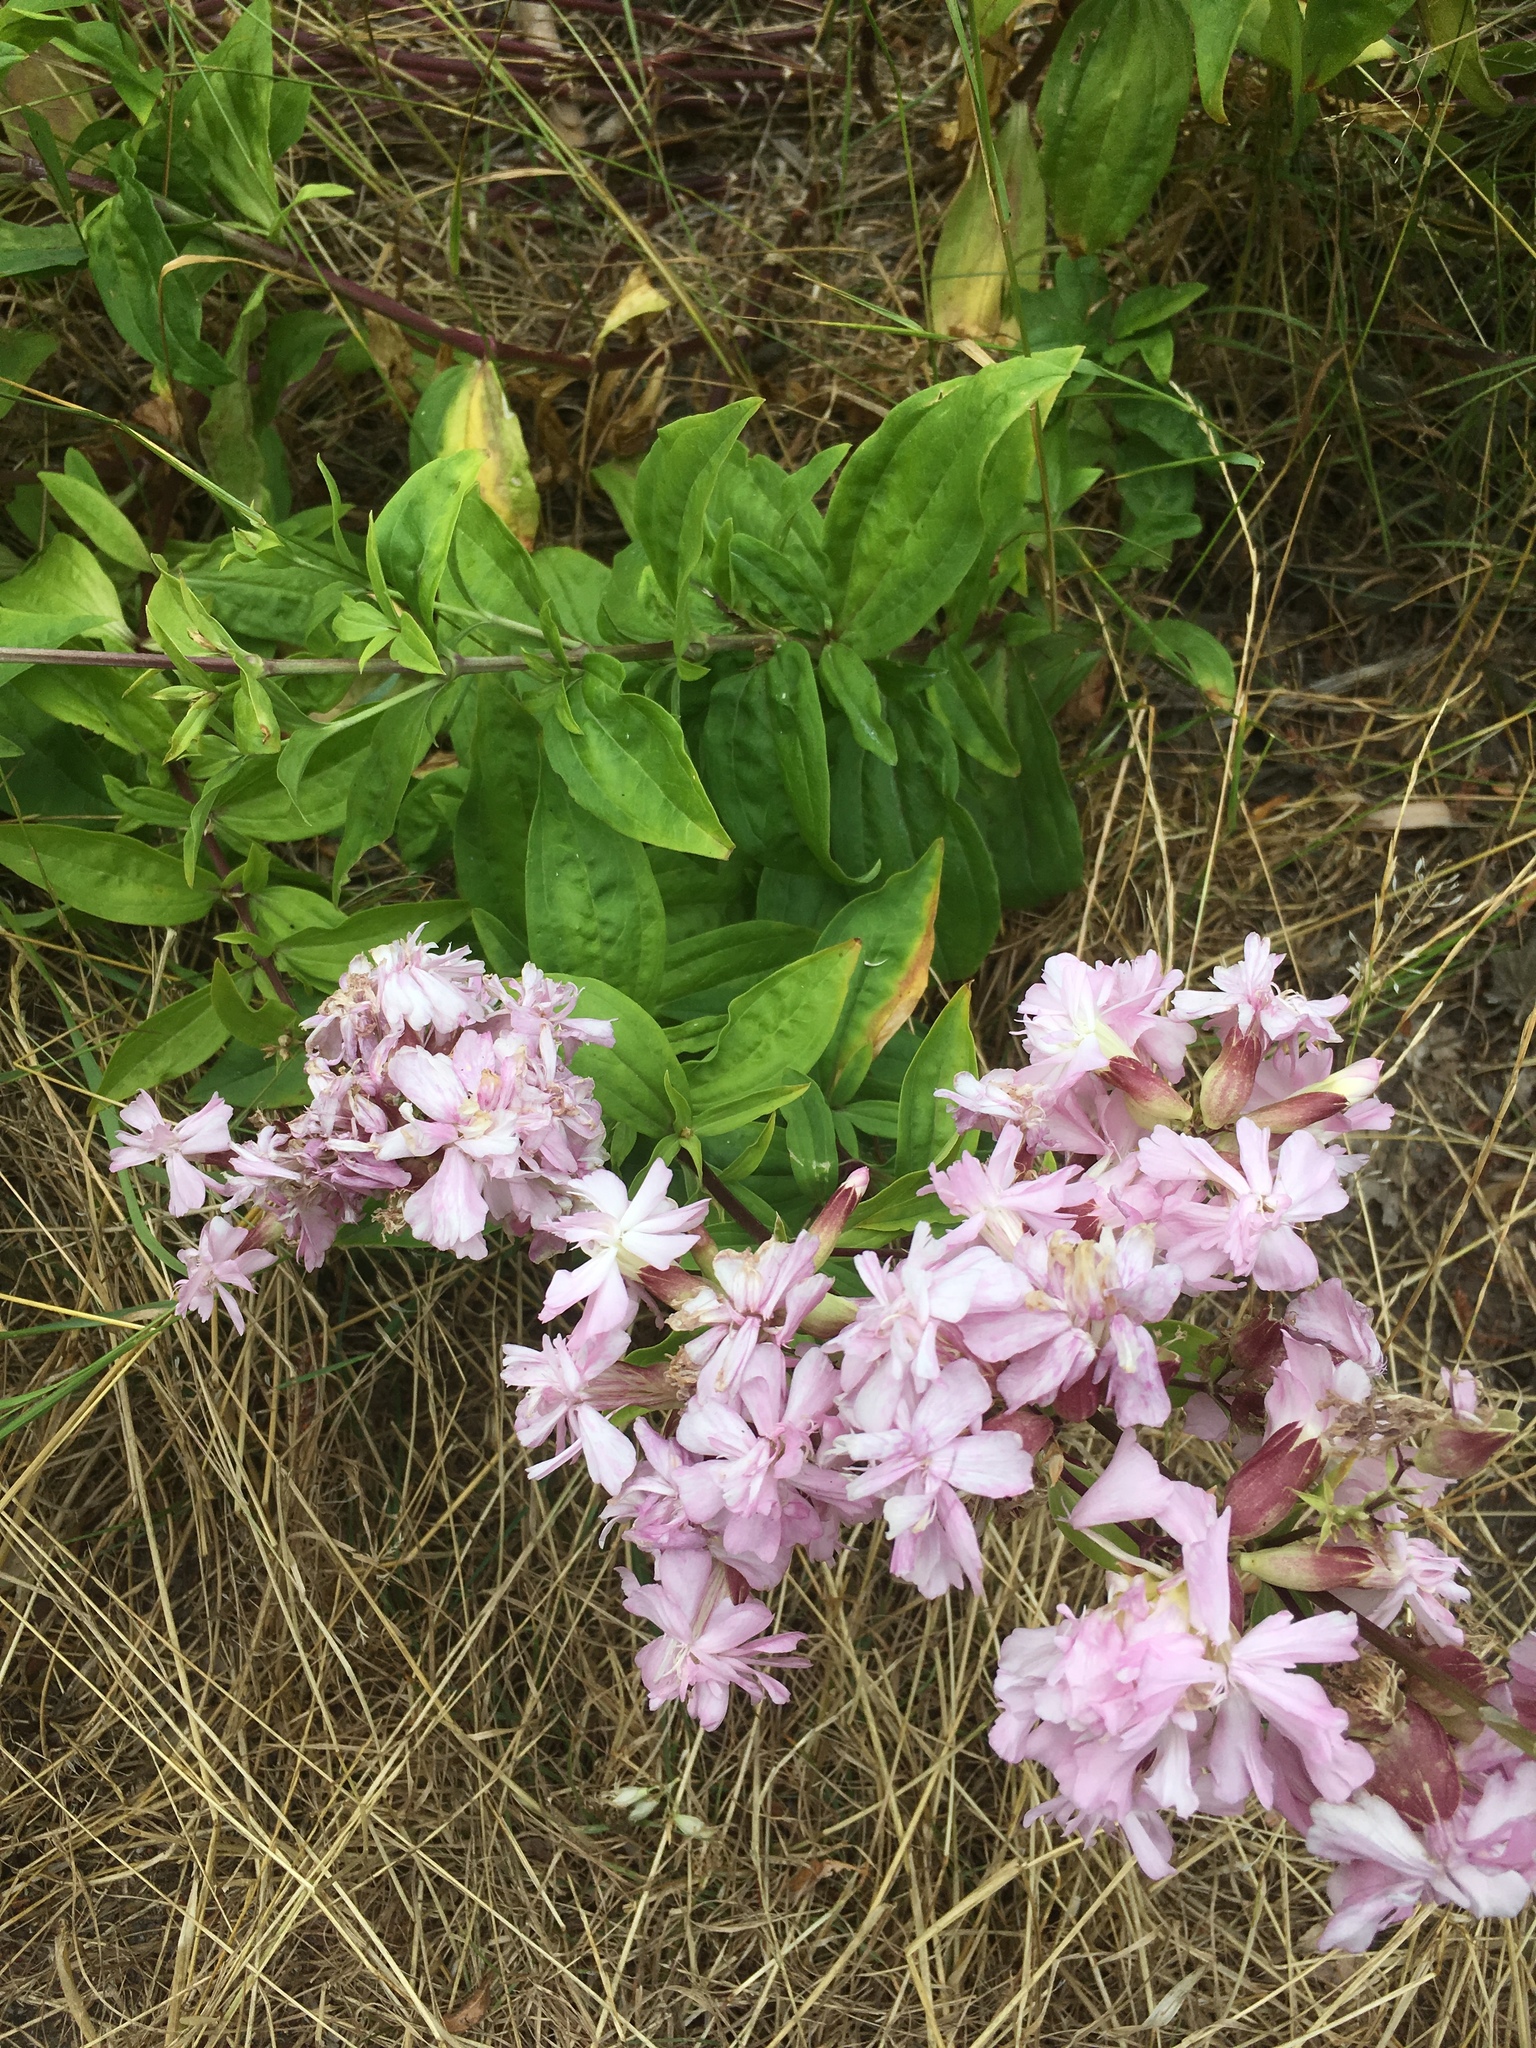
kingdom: Plantae
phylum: Tracheophyta
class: Magnoliopsida
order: Caryophyllales
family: Caryophyllaceae
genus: Saponaria
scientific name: Saponaria officinalis
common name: Soapwort
